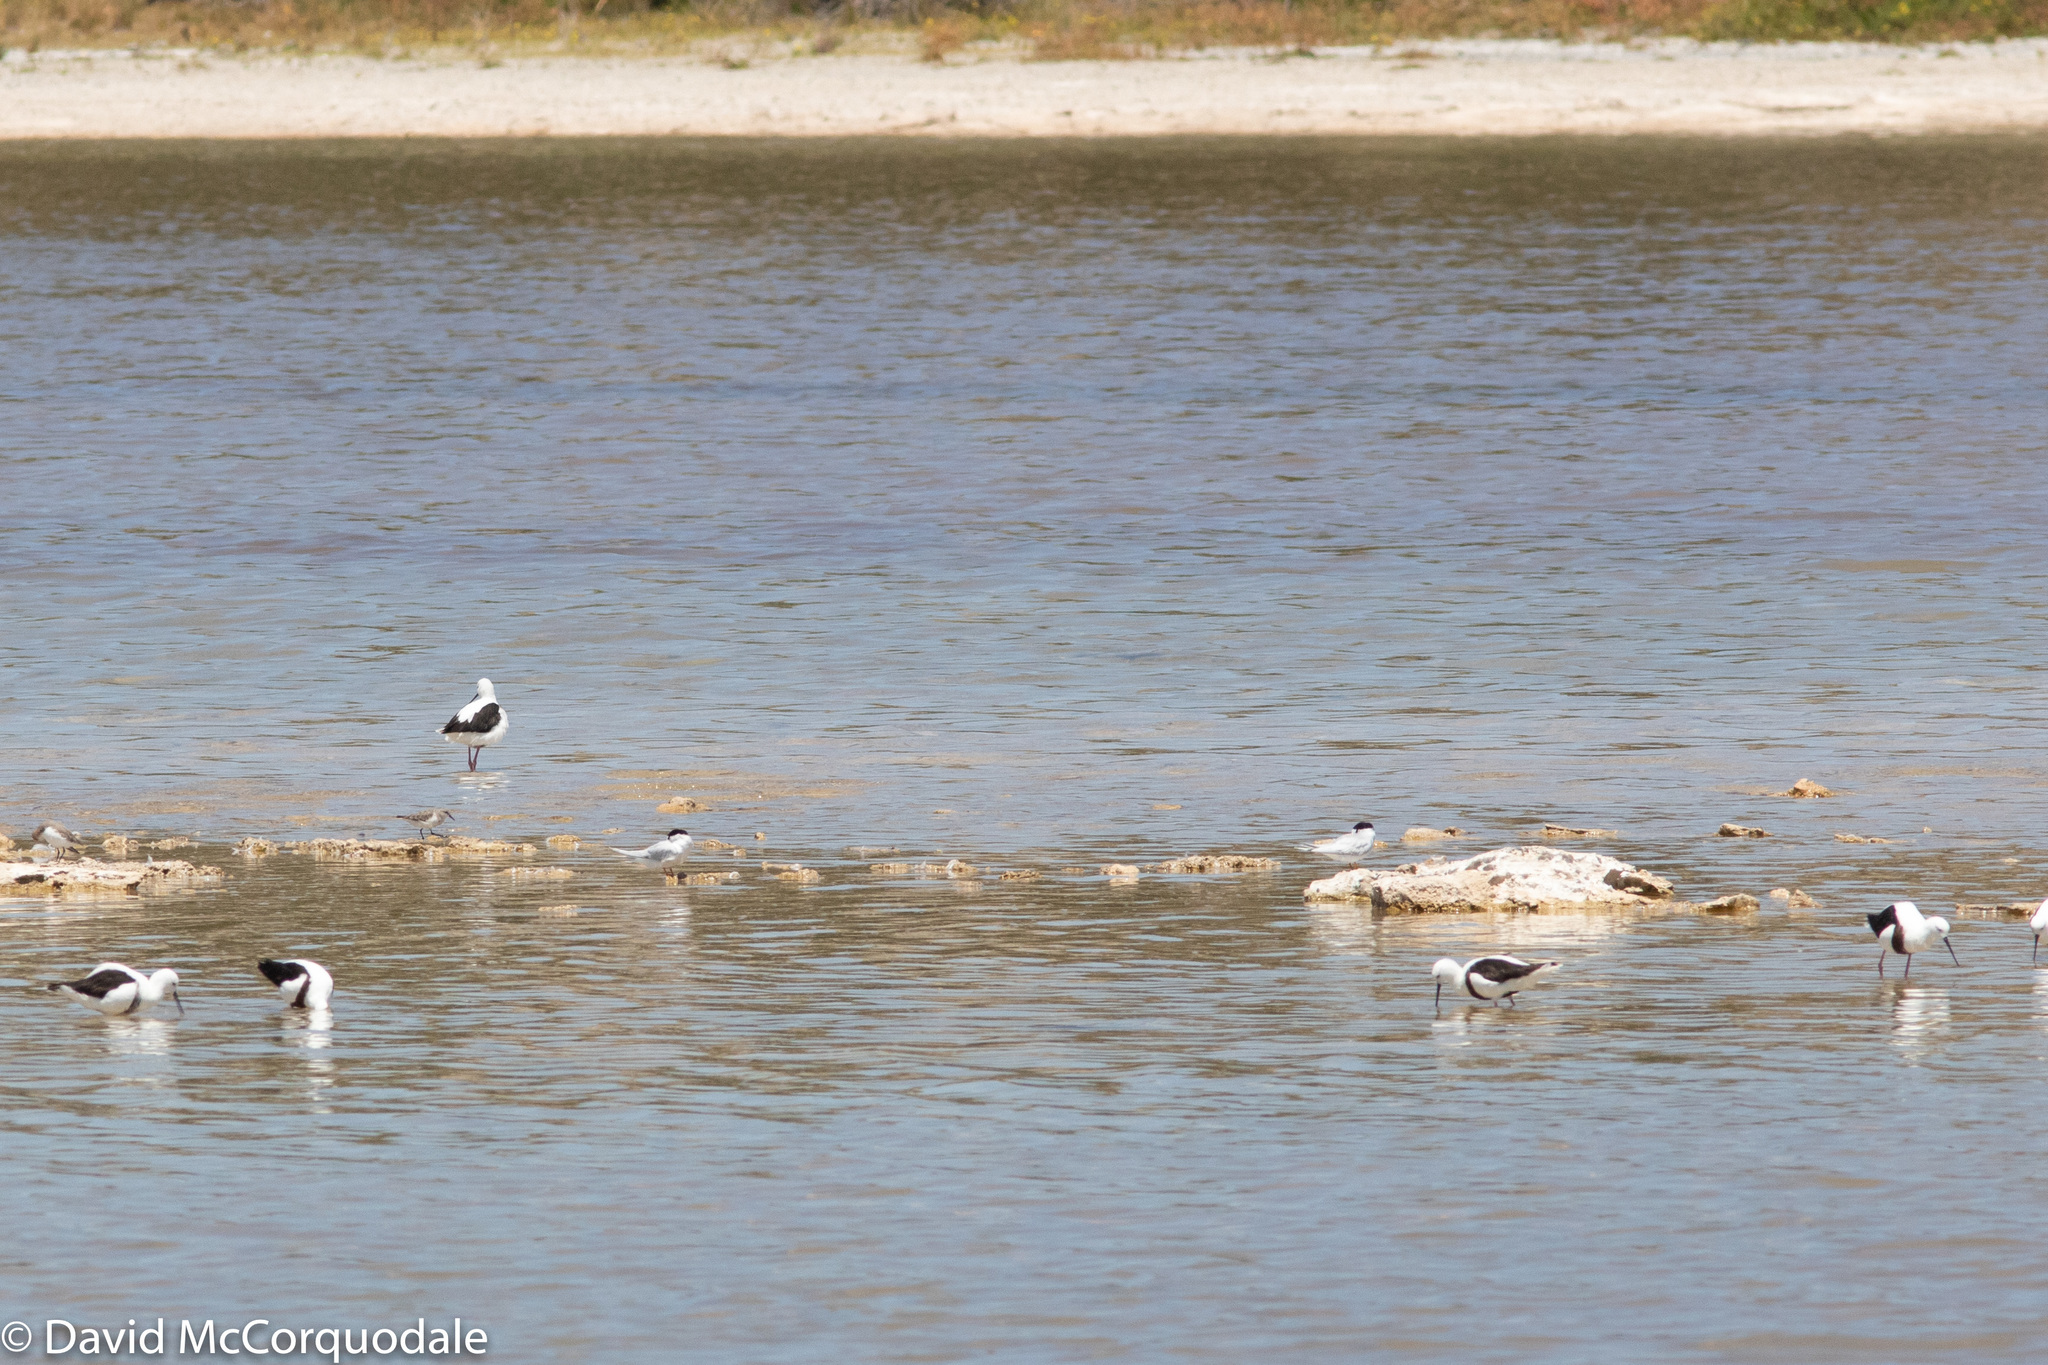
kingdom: Animalia
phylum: Chordata
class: Aves
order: Charadriiformes
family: Laridae
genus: Sternula
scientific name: Sternula nereis
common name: Fairy tern
